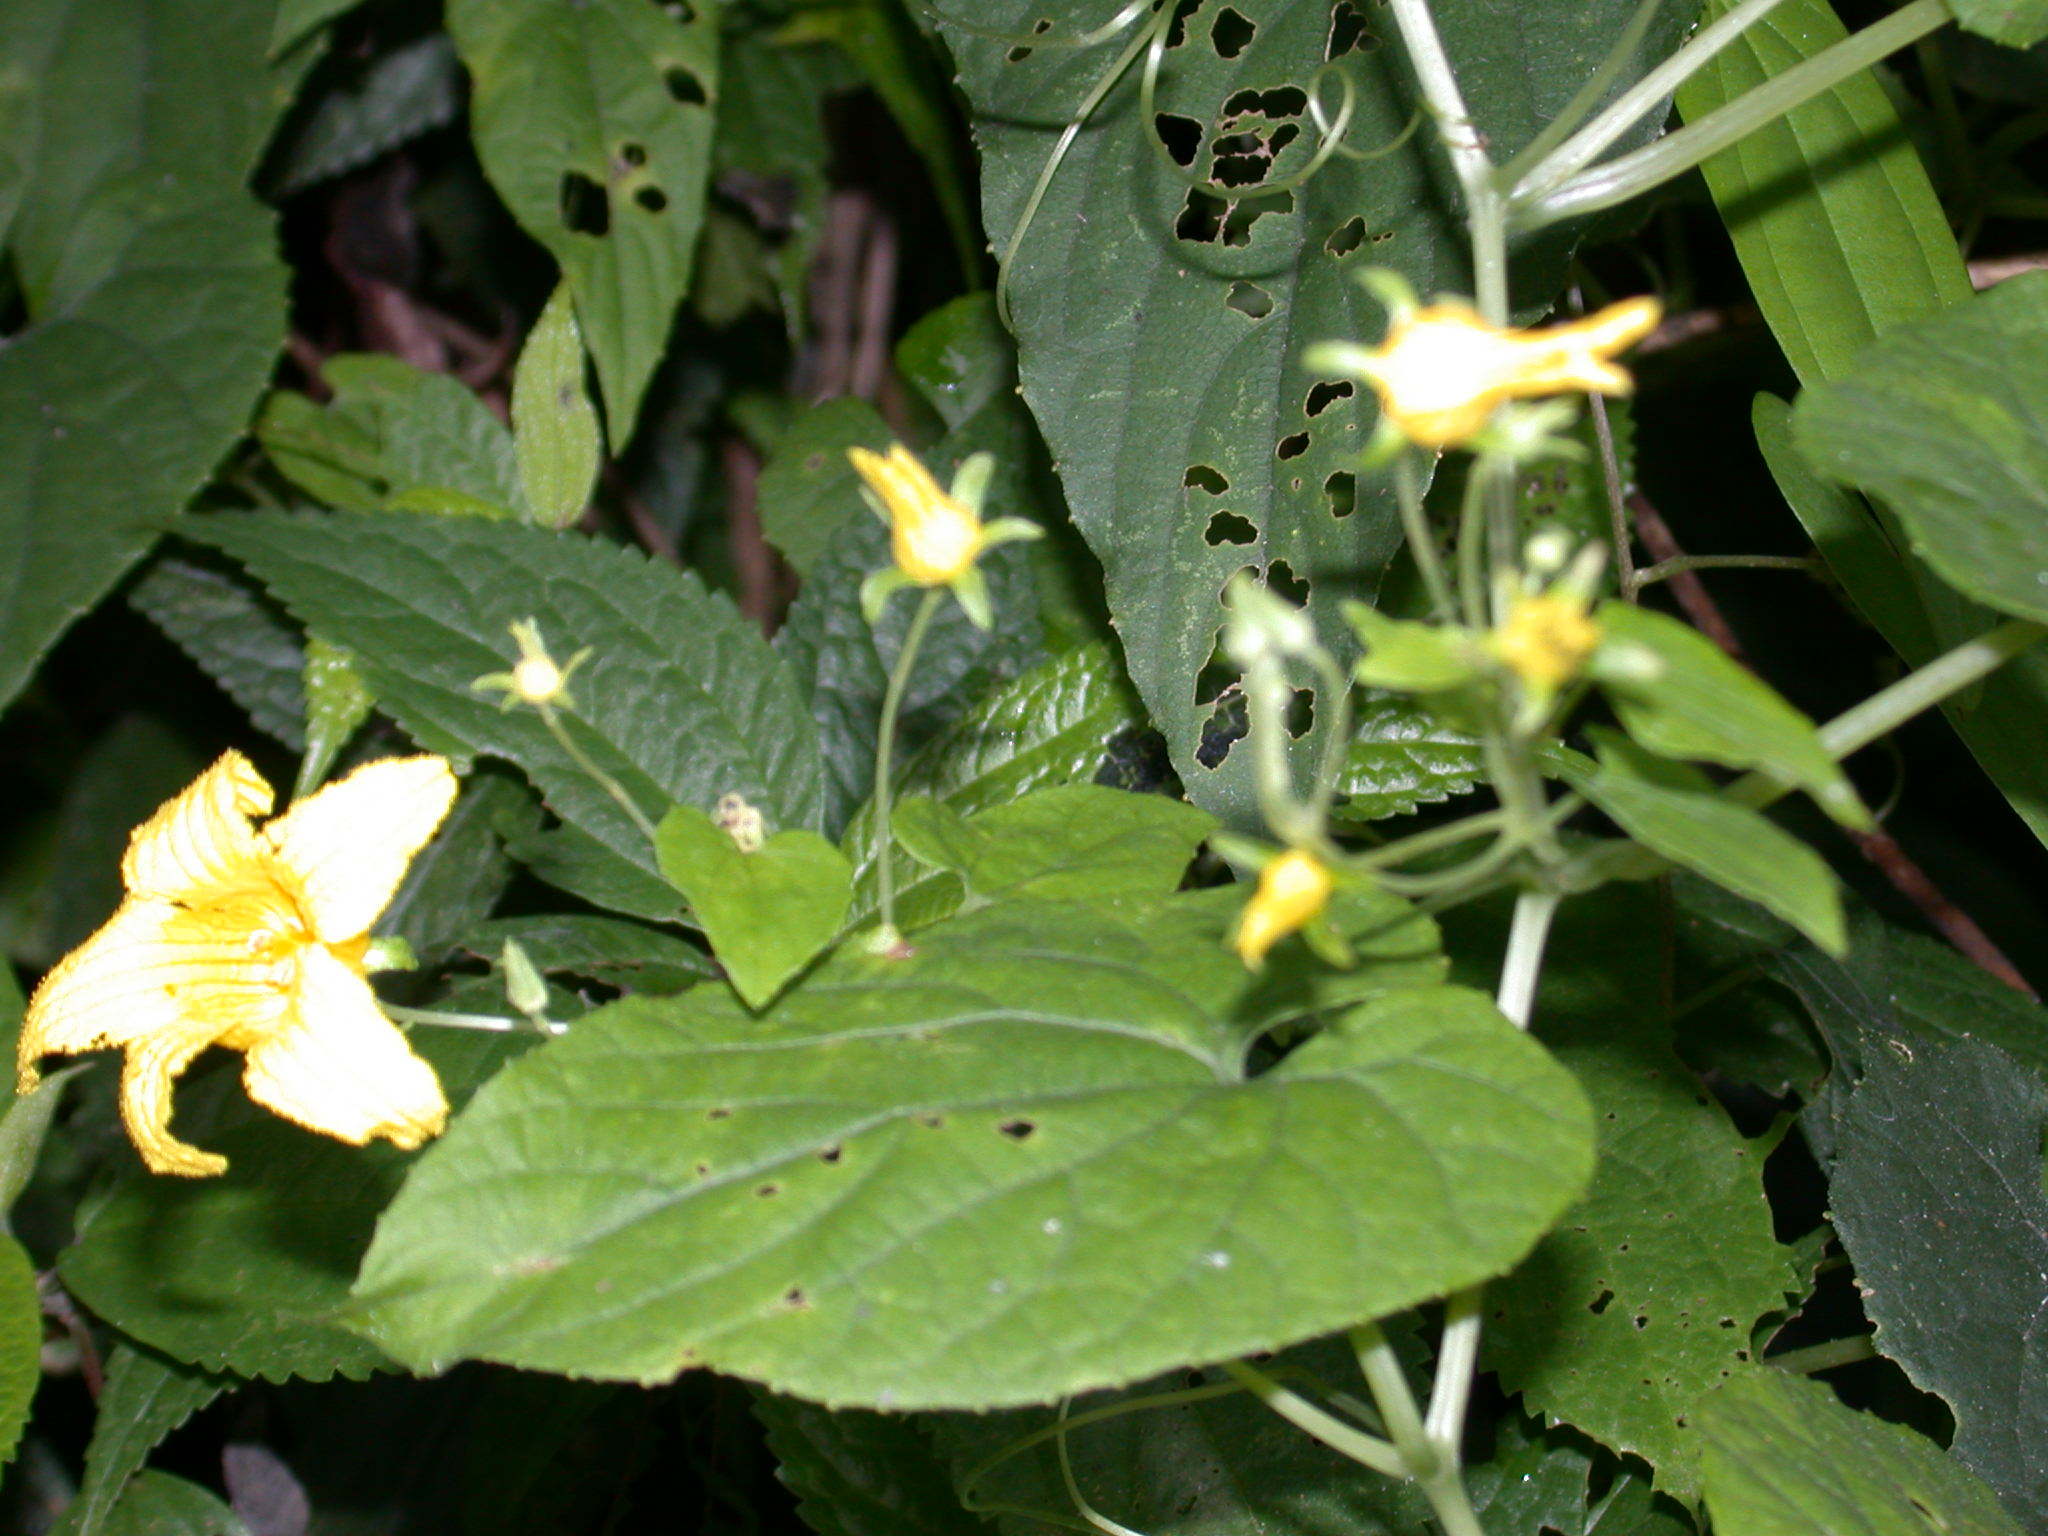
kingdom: Plantae
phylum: Tracheophyta
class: Magnoliopsida
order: Cucurbitales
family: Cucurbitaceae
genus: Thladiantha
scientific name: Thladiantha punctata
